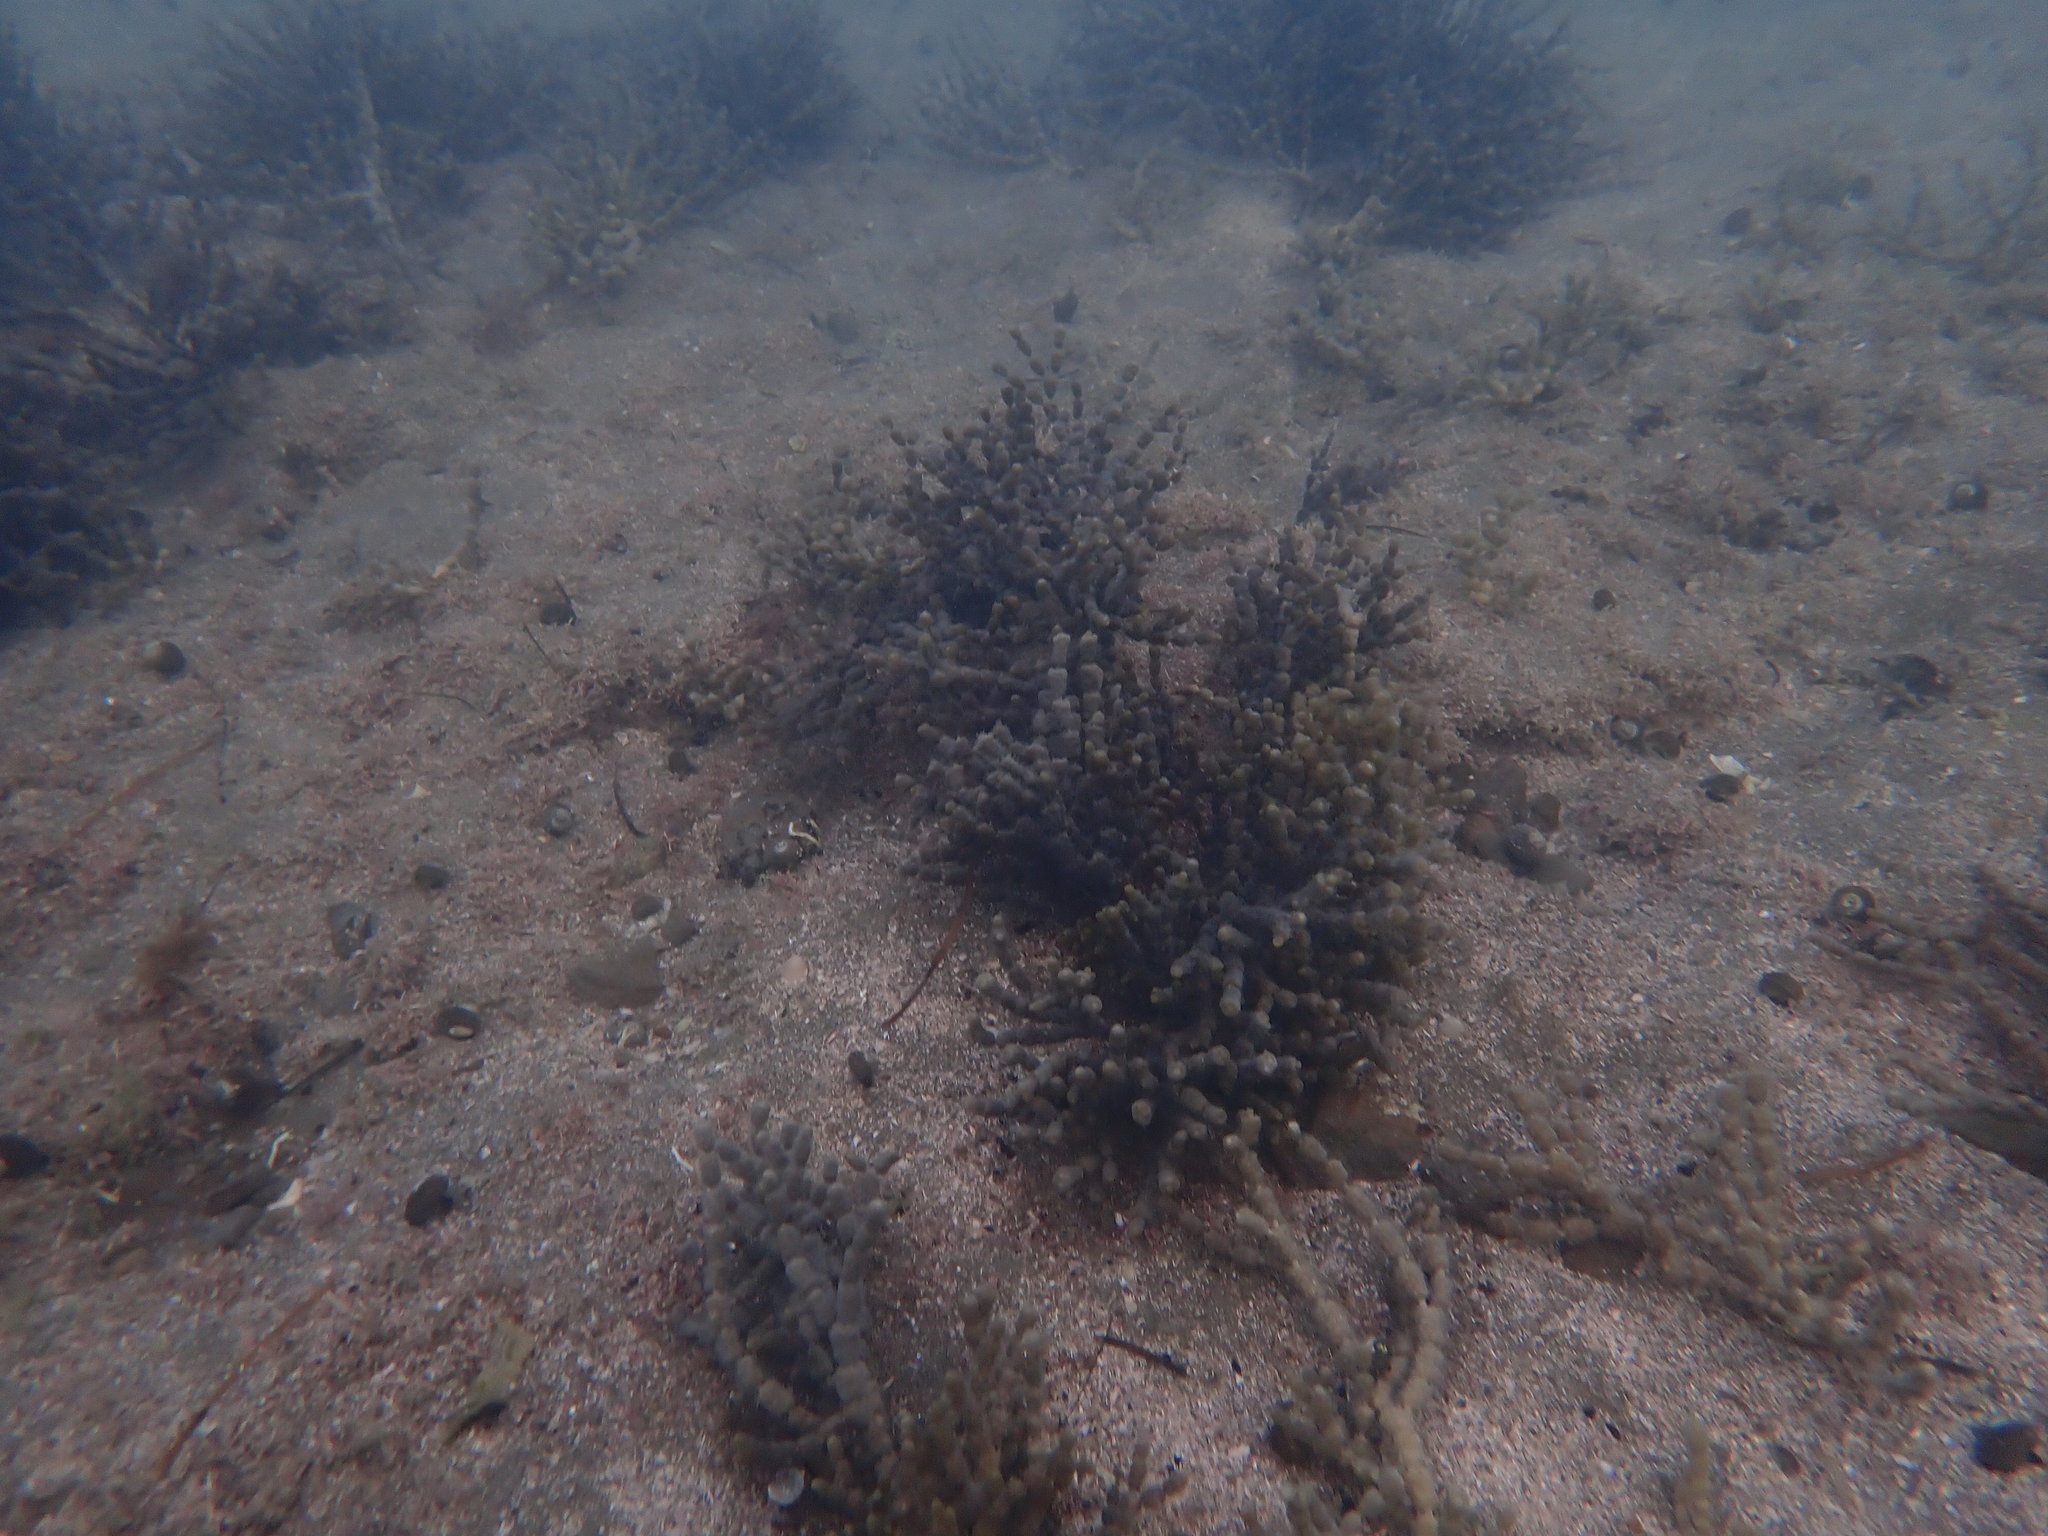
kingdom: Chromista
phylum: Ochrophyta
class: Phaeophyceae
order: Fucales
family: Hormosiraceae
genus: Hormosira
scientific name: Hormosira banksii
